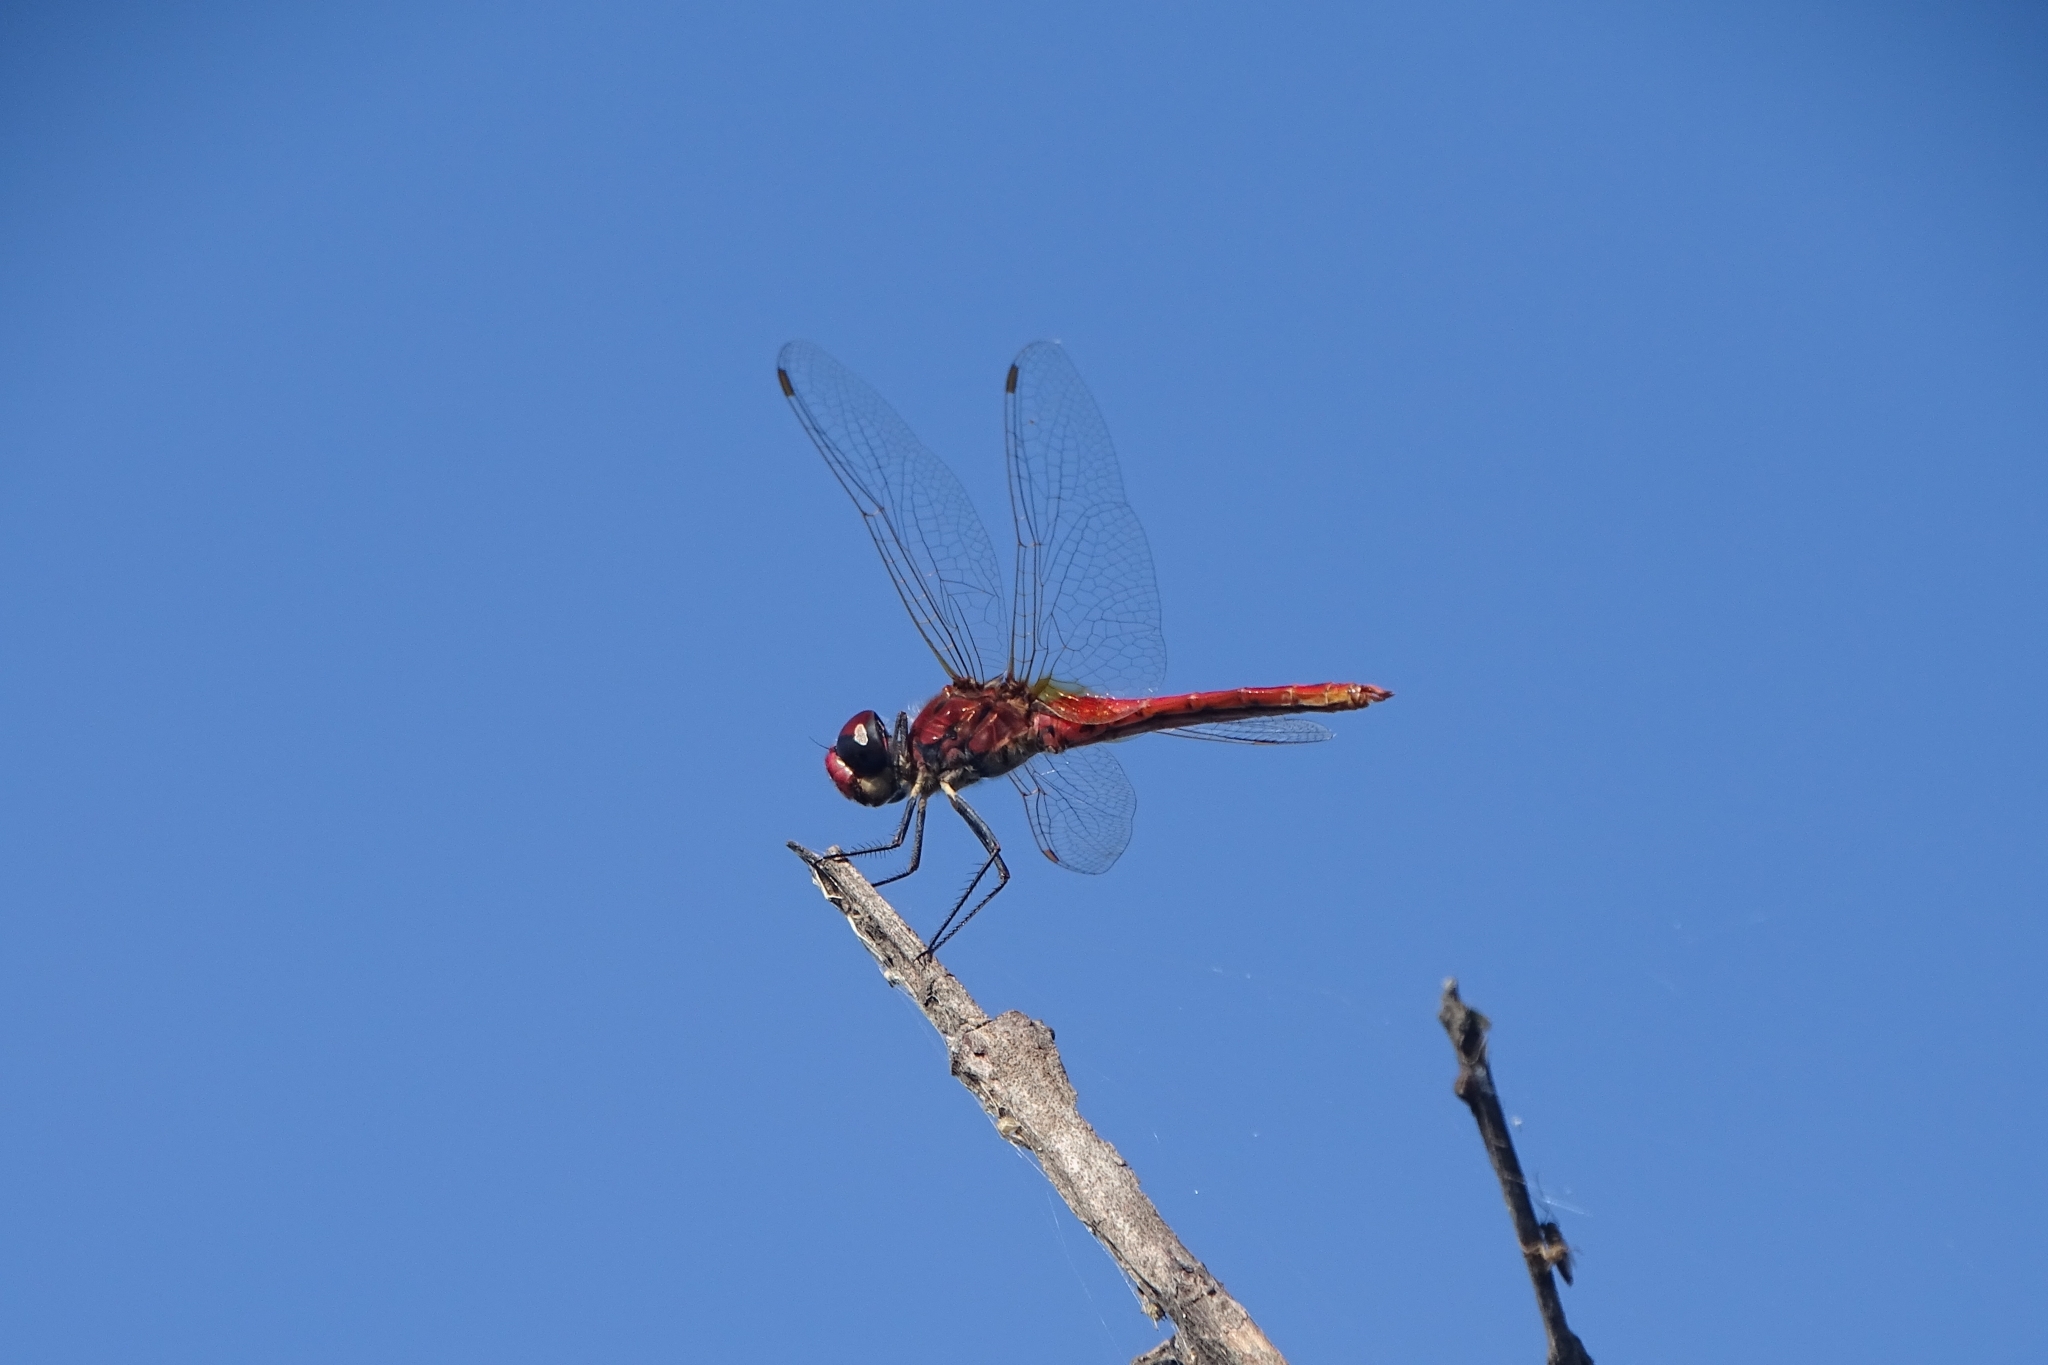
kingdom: Animalia
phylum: Arthropoda
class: Insecta
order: Odonata
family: Libellulidae
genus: Macrodiplax
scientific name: Macrodiplax cora
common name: Coastal glider
